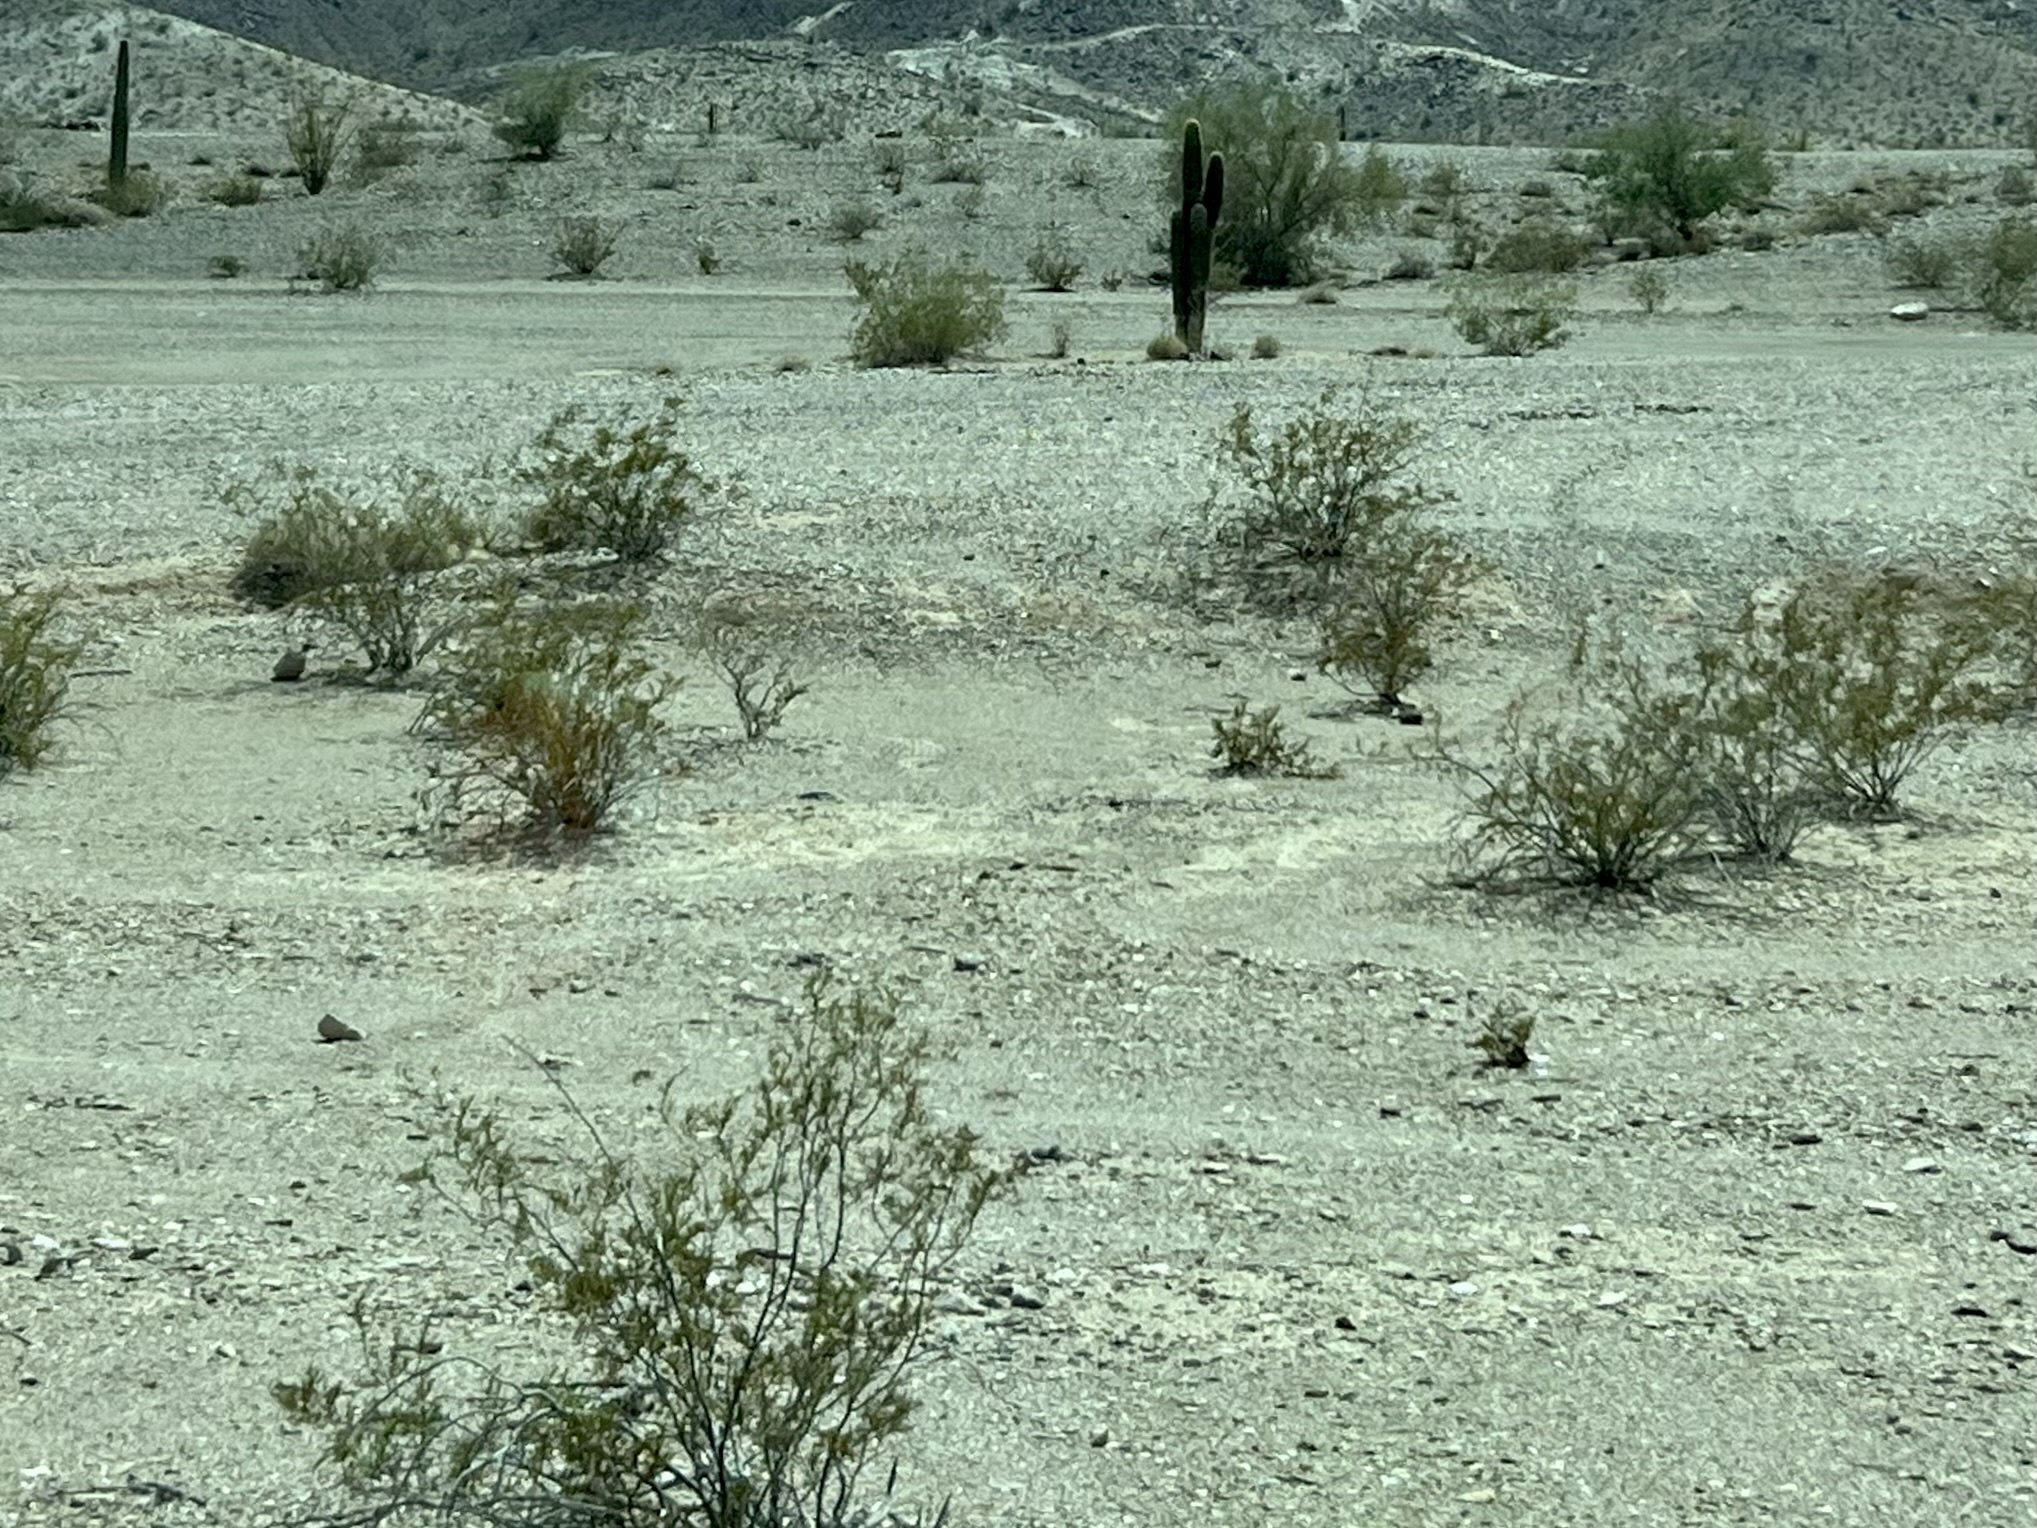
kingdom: Plantae
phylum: Tracheophyta
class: Magnoliopsida
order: Zygophyllales
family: Zygophyllaceae
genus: Larrea
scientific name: Larrea tridentata
